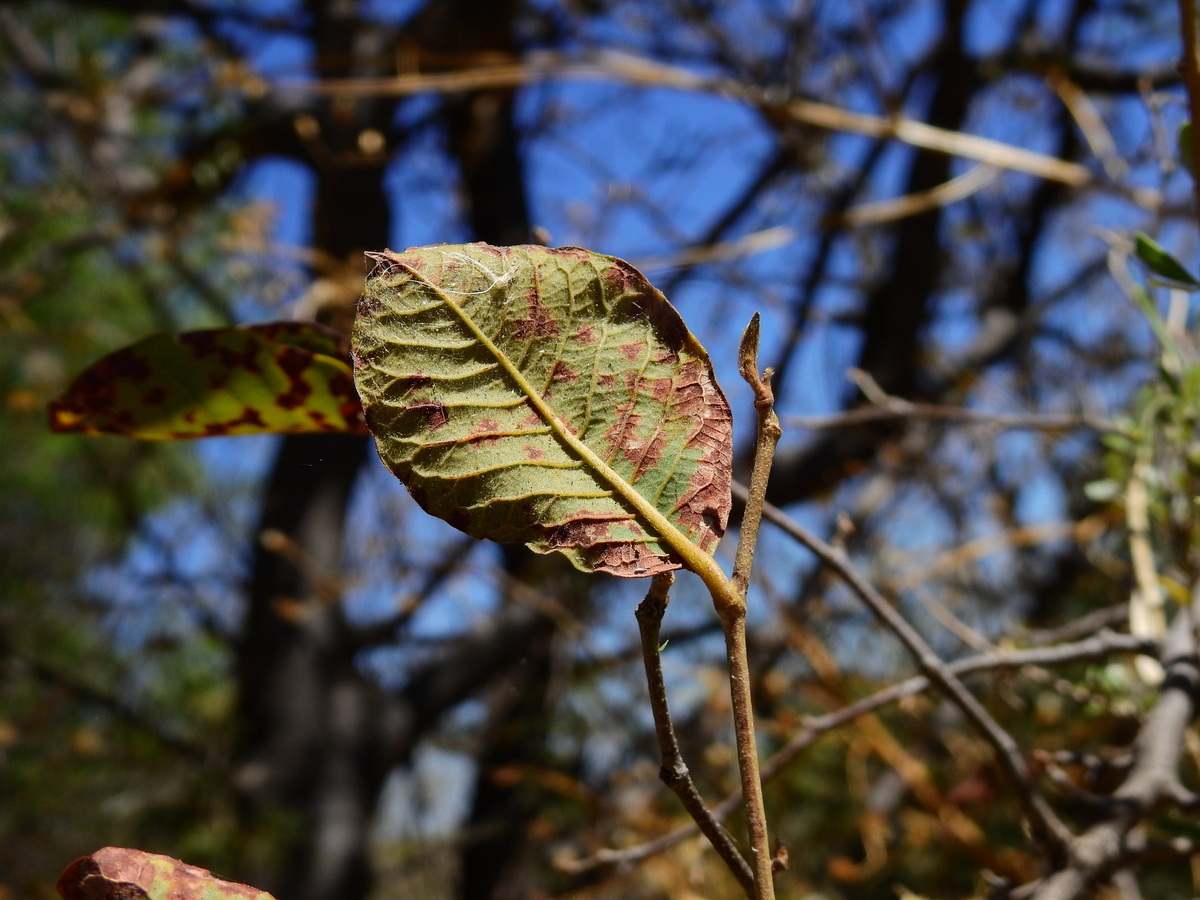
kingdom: Plantae
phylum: Tracheophyta
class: Magnoliopsida
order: Caryophyllales
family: Polygonaceae
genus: Ruprechtia
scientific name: Ruprechtia apetala
